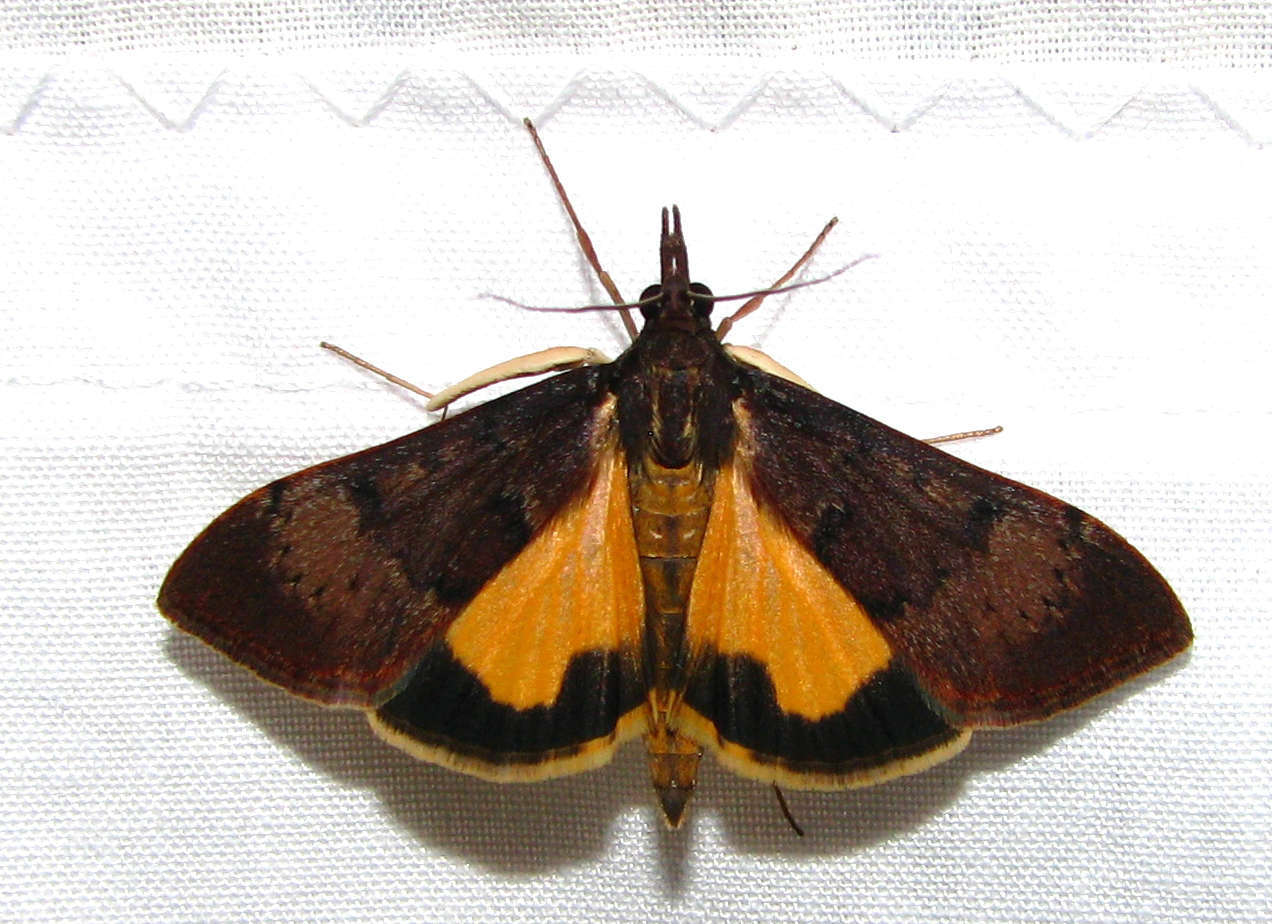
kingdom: Animalia
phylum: Arthropoda
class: Insecta
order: Lepidoptera
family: Crambidae
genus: Uresiphita
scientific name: Uresiphita ornithopteralis
